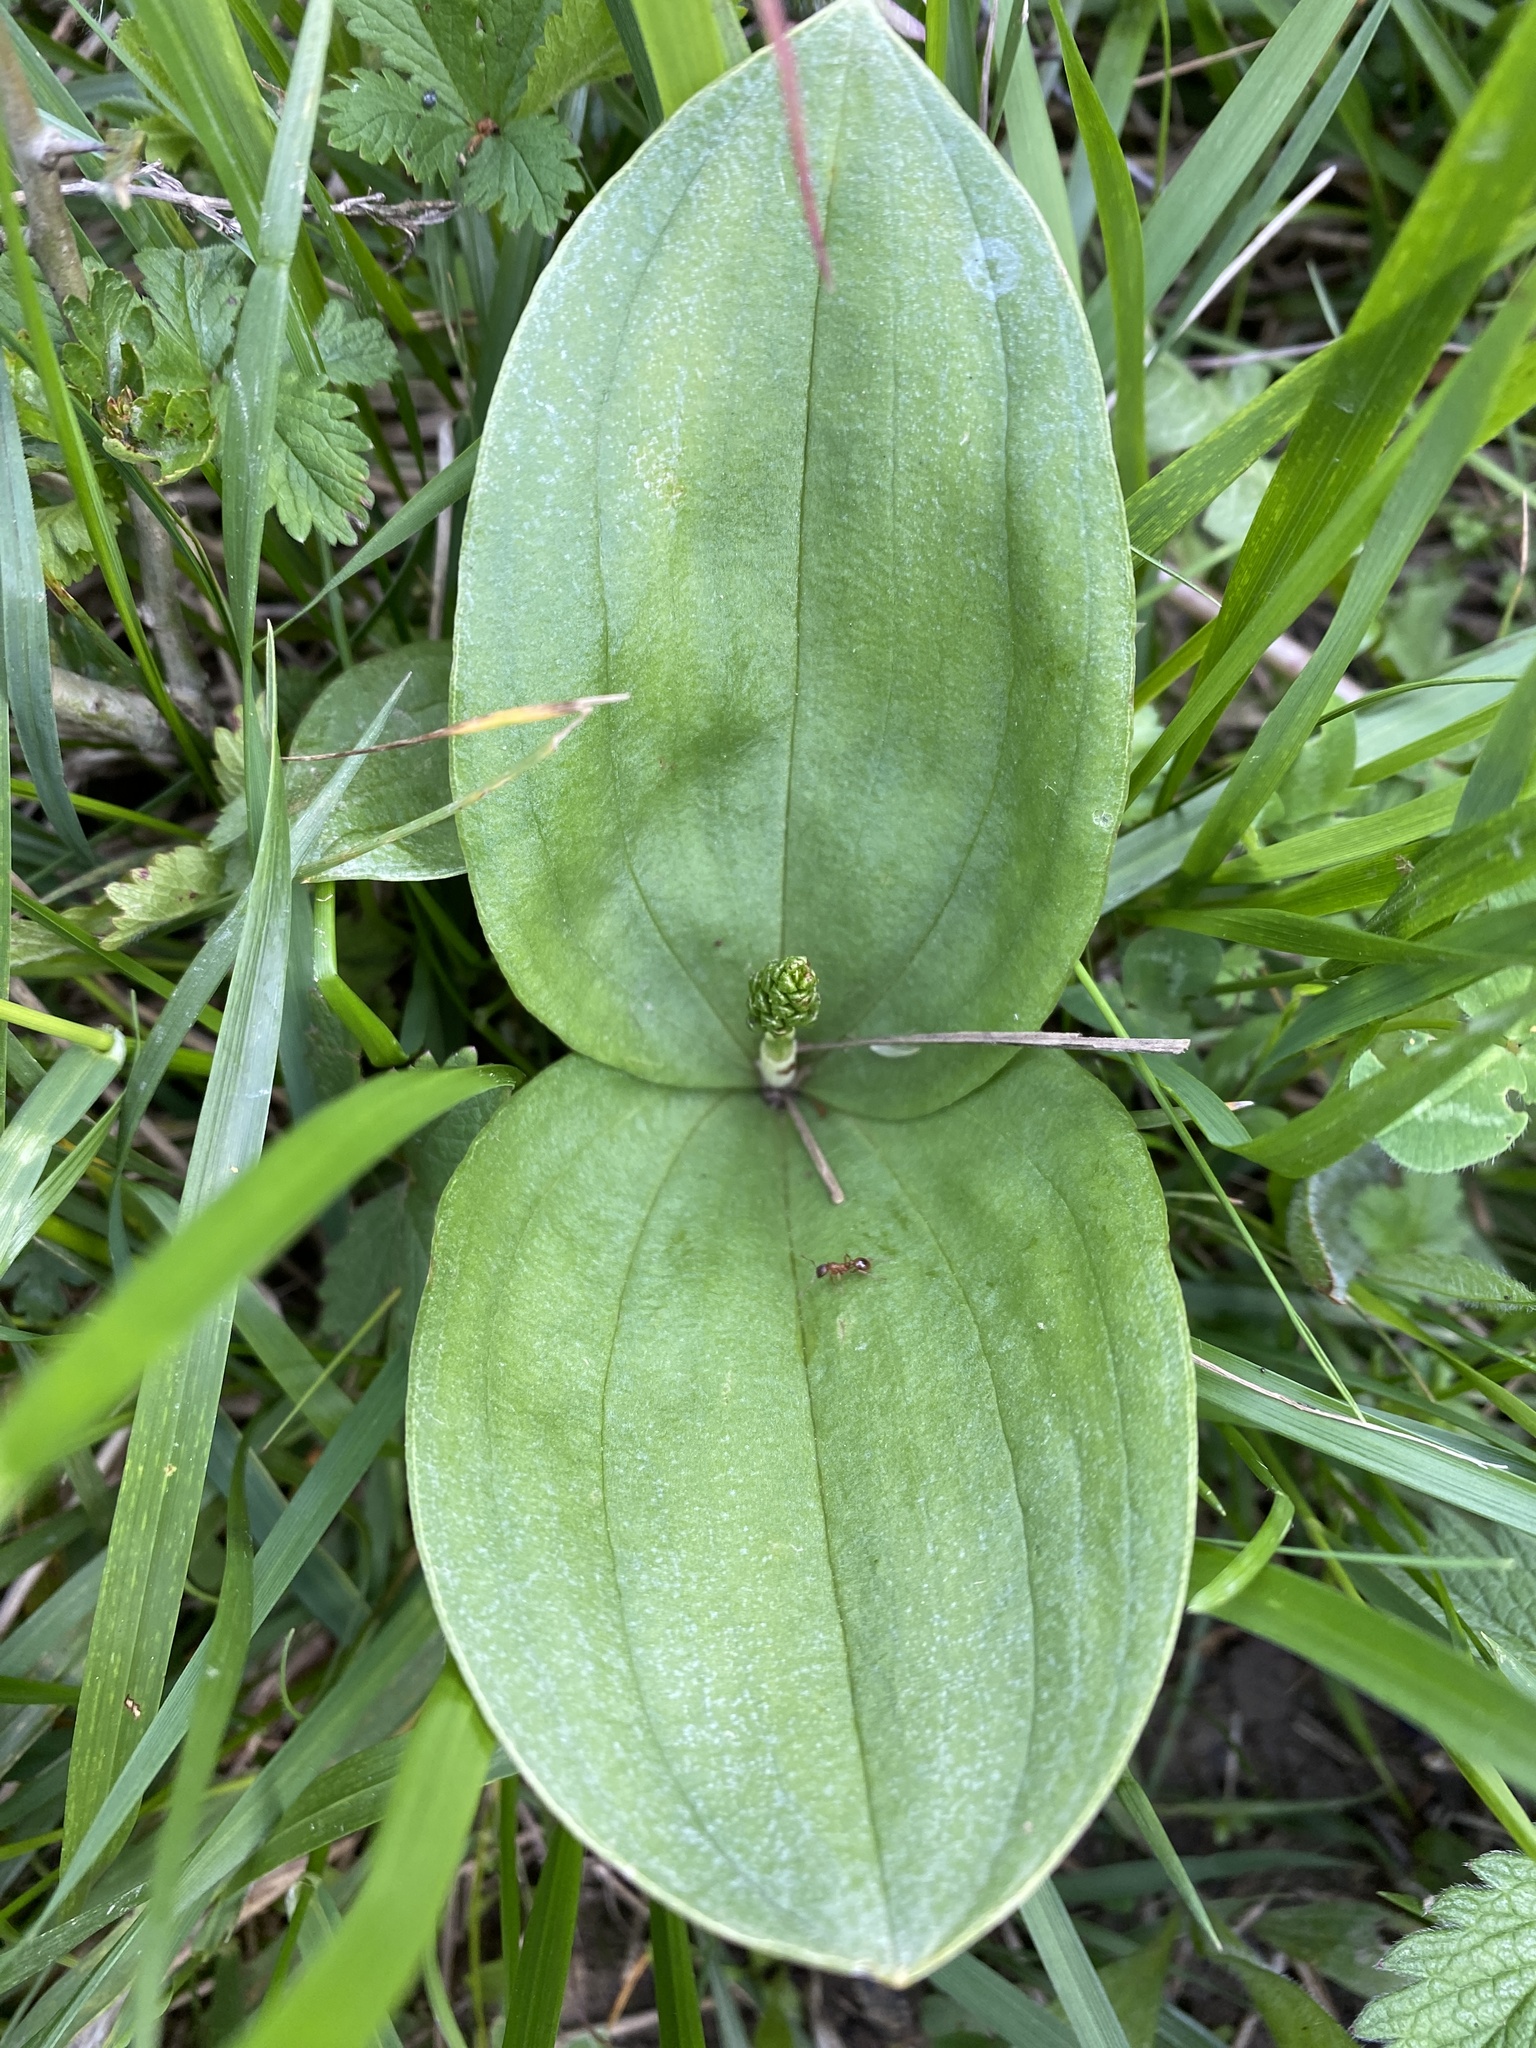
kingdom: Plantae
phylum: Tracheophyta
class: Liliopsida
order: Asparagales
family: Orchidaceae
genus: Neottia
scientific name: Neottia ovata
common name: Common twayblade
